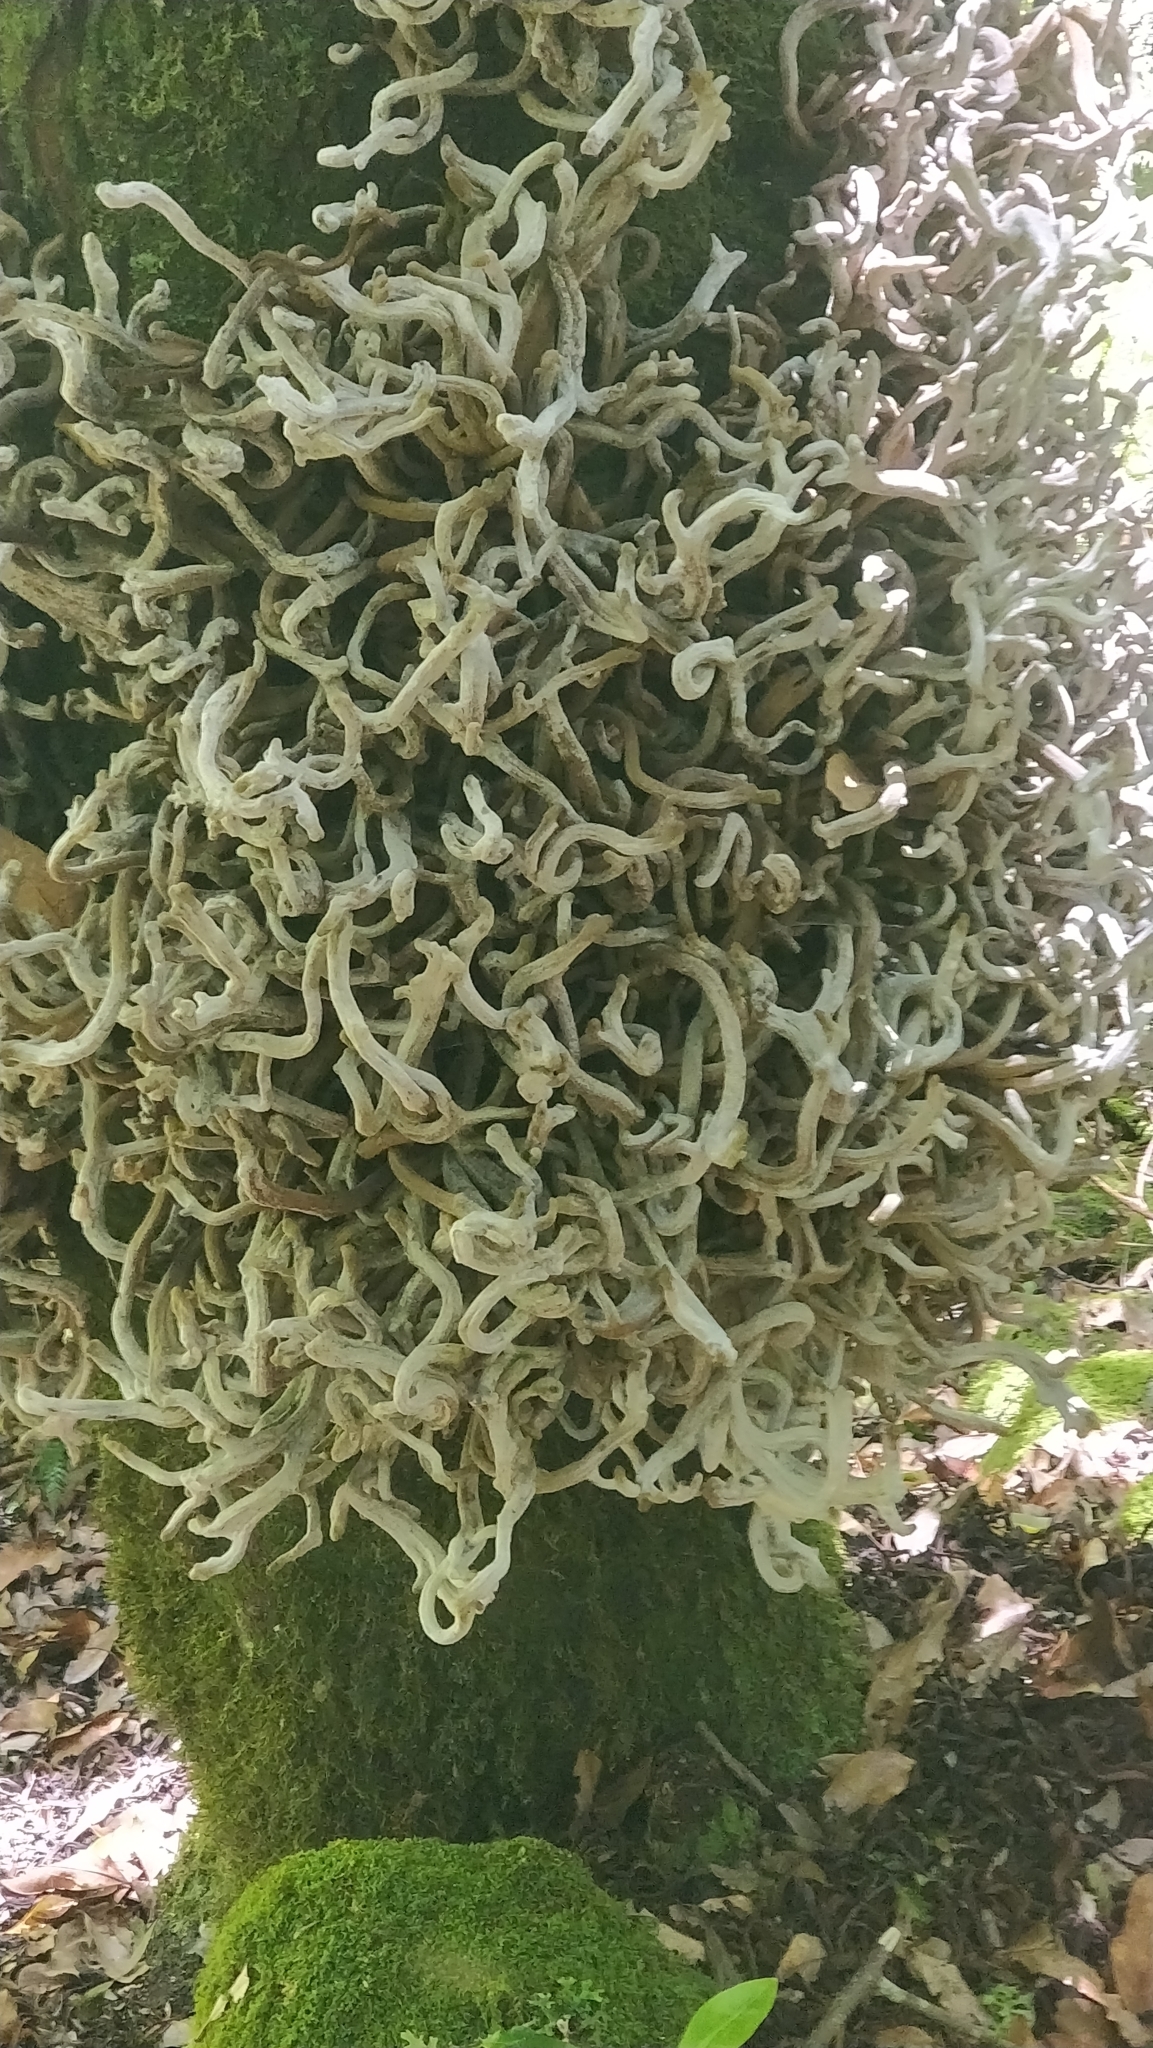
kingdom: Fungi
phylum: Basidiomycota
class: Exobasidiomycetes
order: Exobasidiales
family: Laurobasidiaceae
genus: Laurobasidium
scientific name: Laurobasidium lauri
